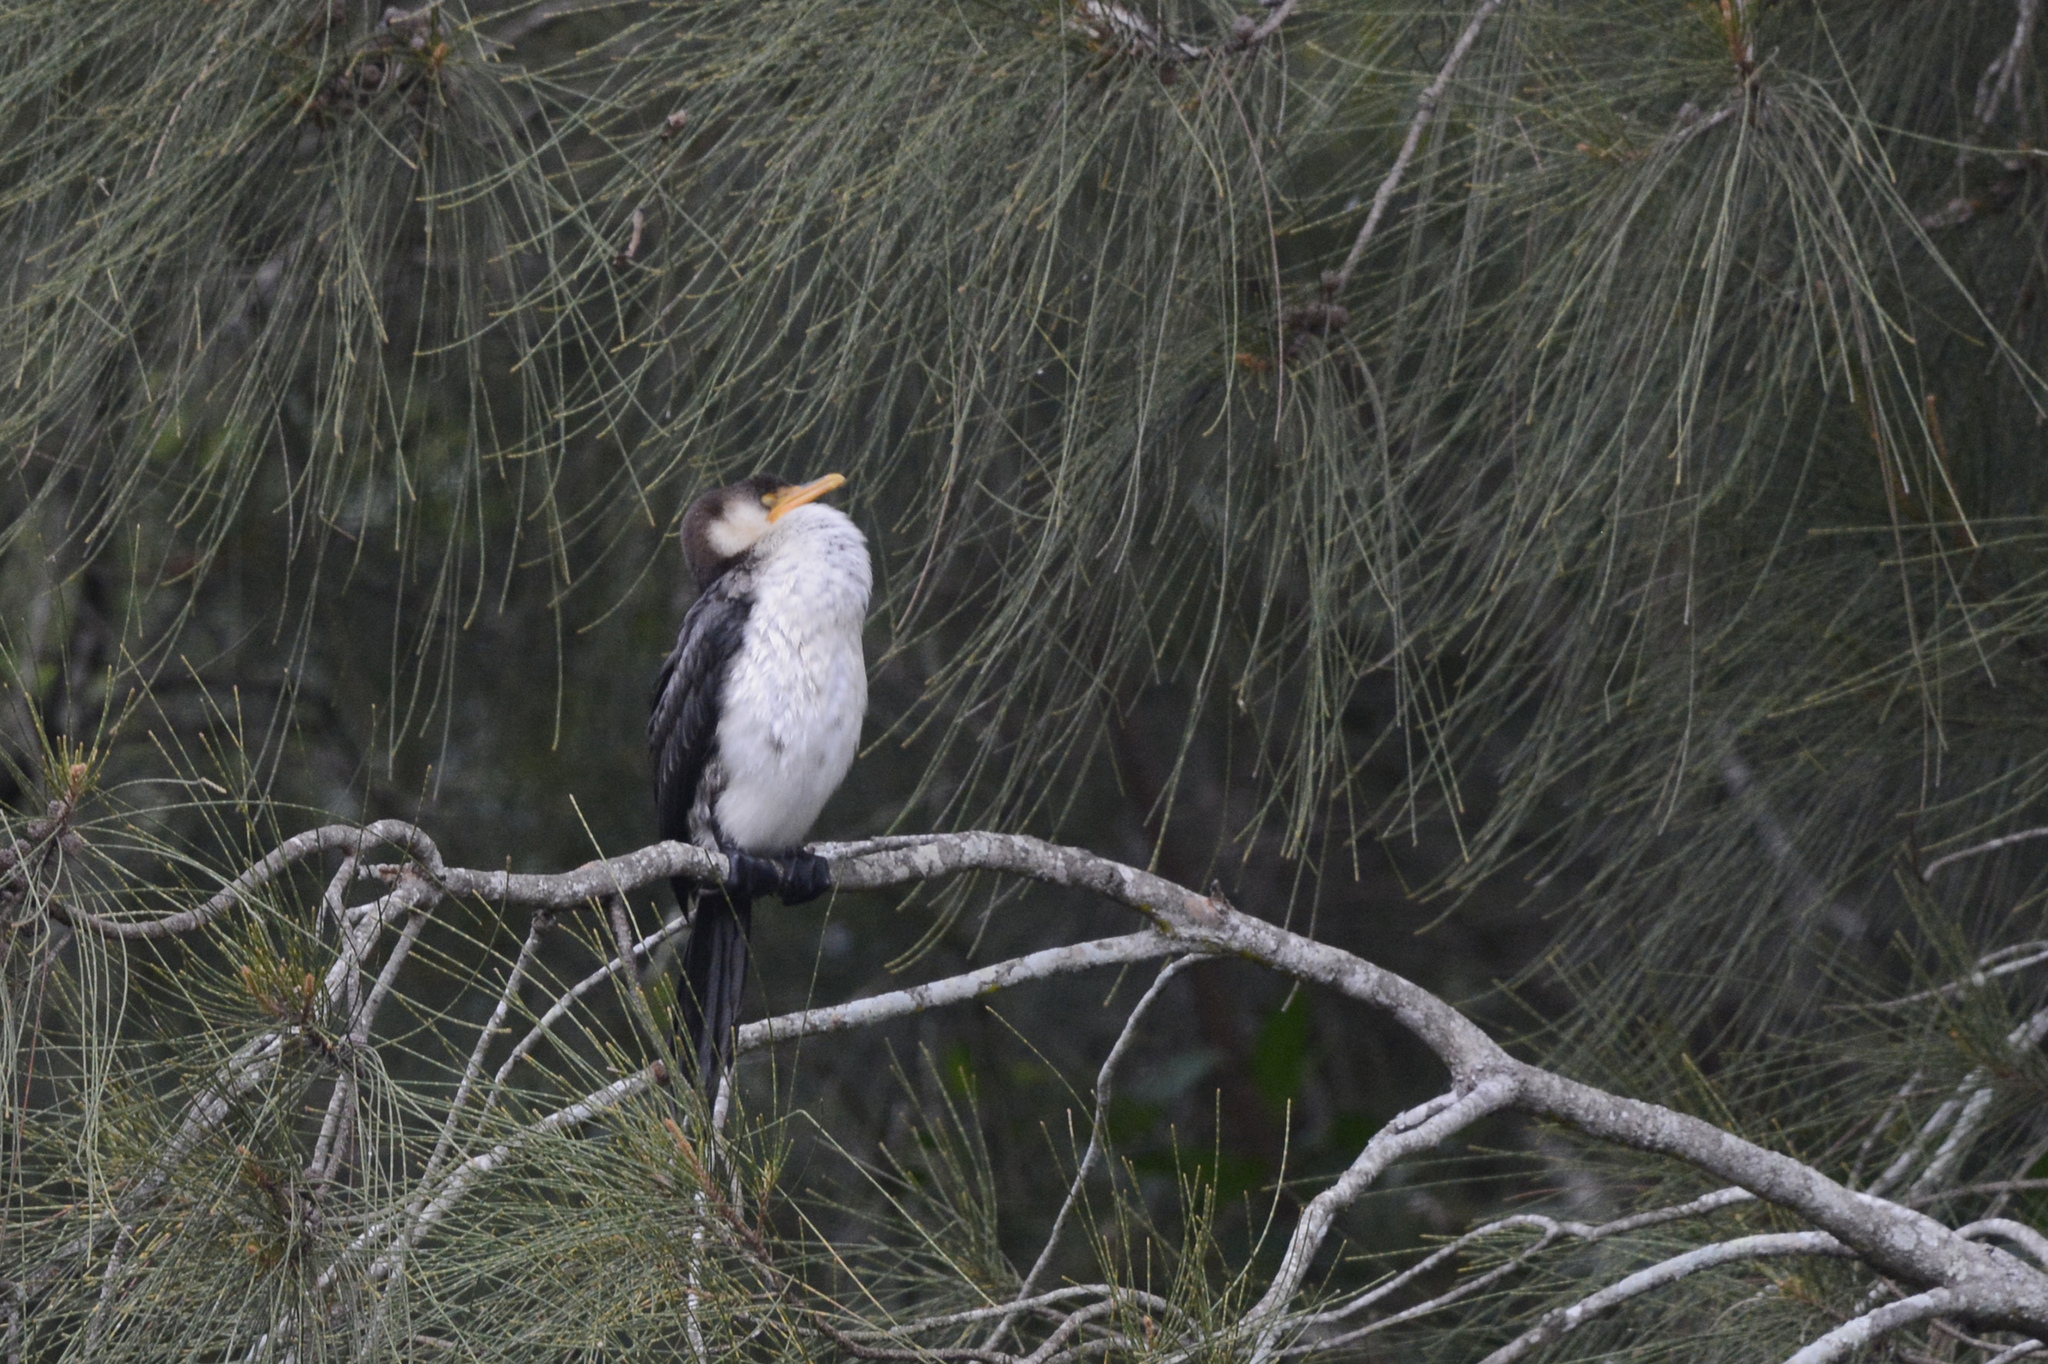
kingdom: Animalia
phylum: Chordata
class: Aves
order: Suliformes
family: Phalacrocoracidae
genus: Microcarbo
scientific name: Microcarbo melanoleucos
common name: Little pied cormorant
